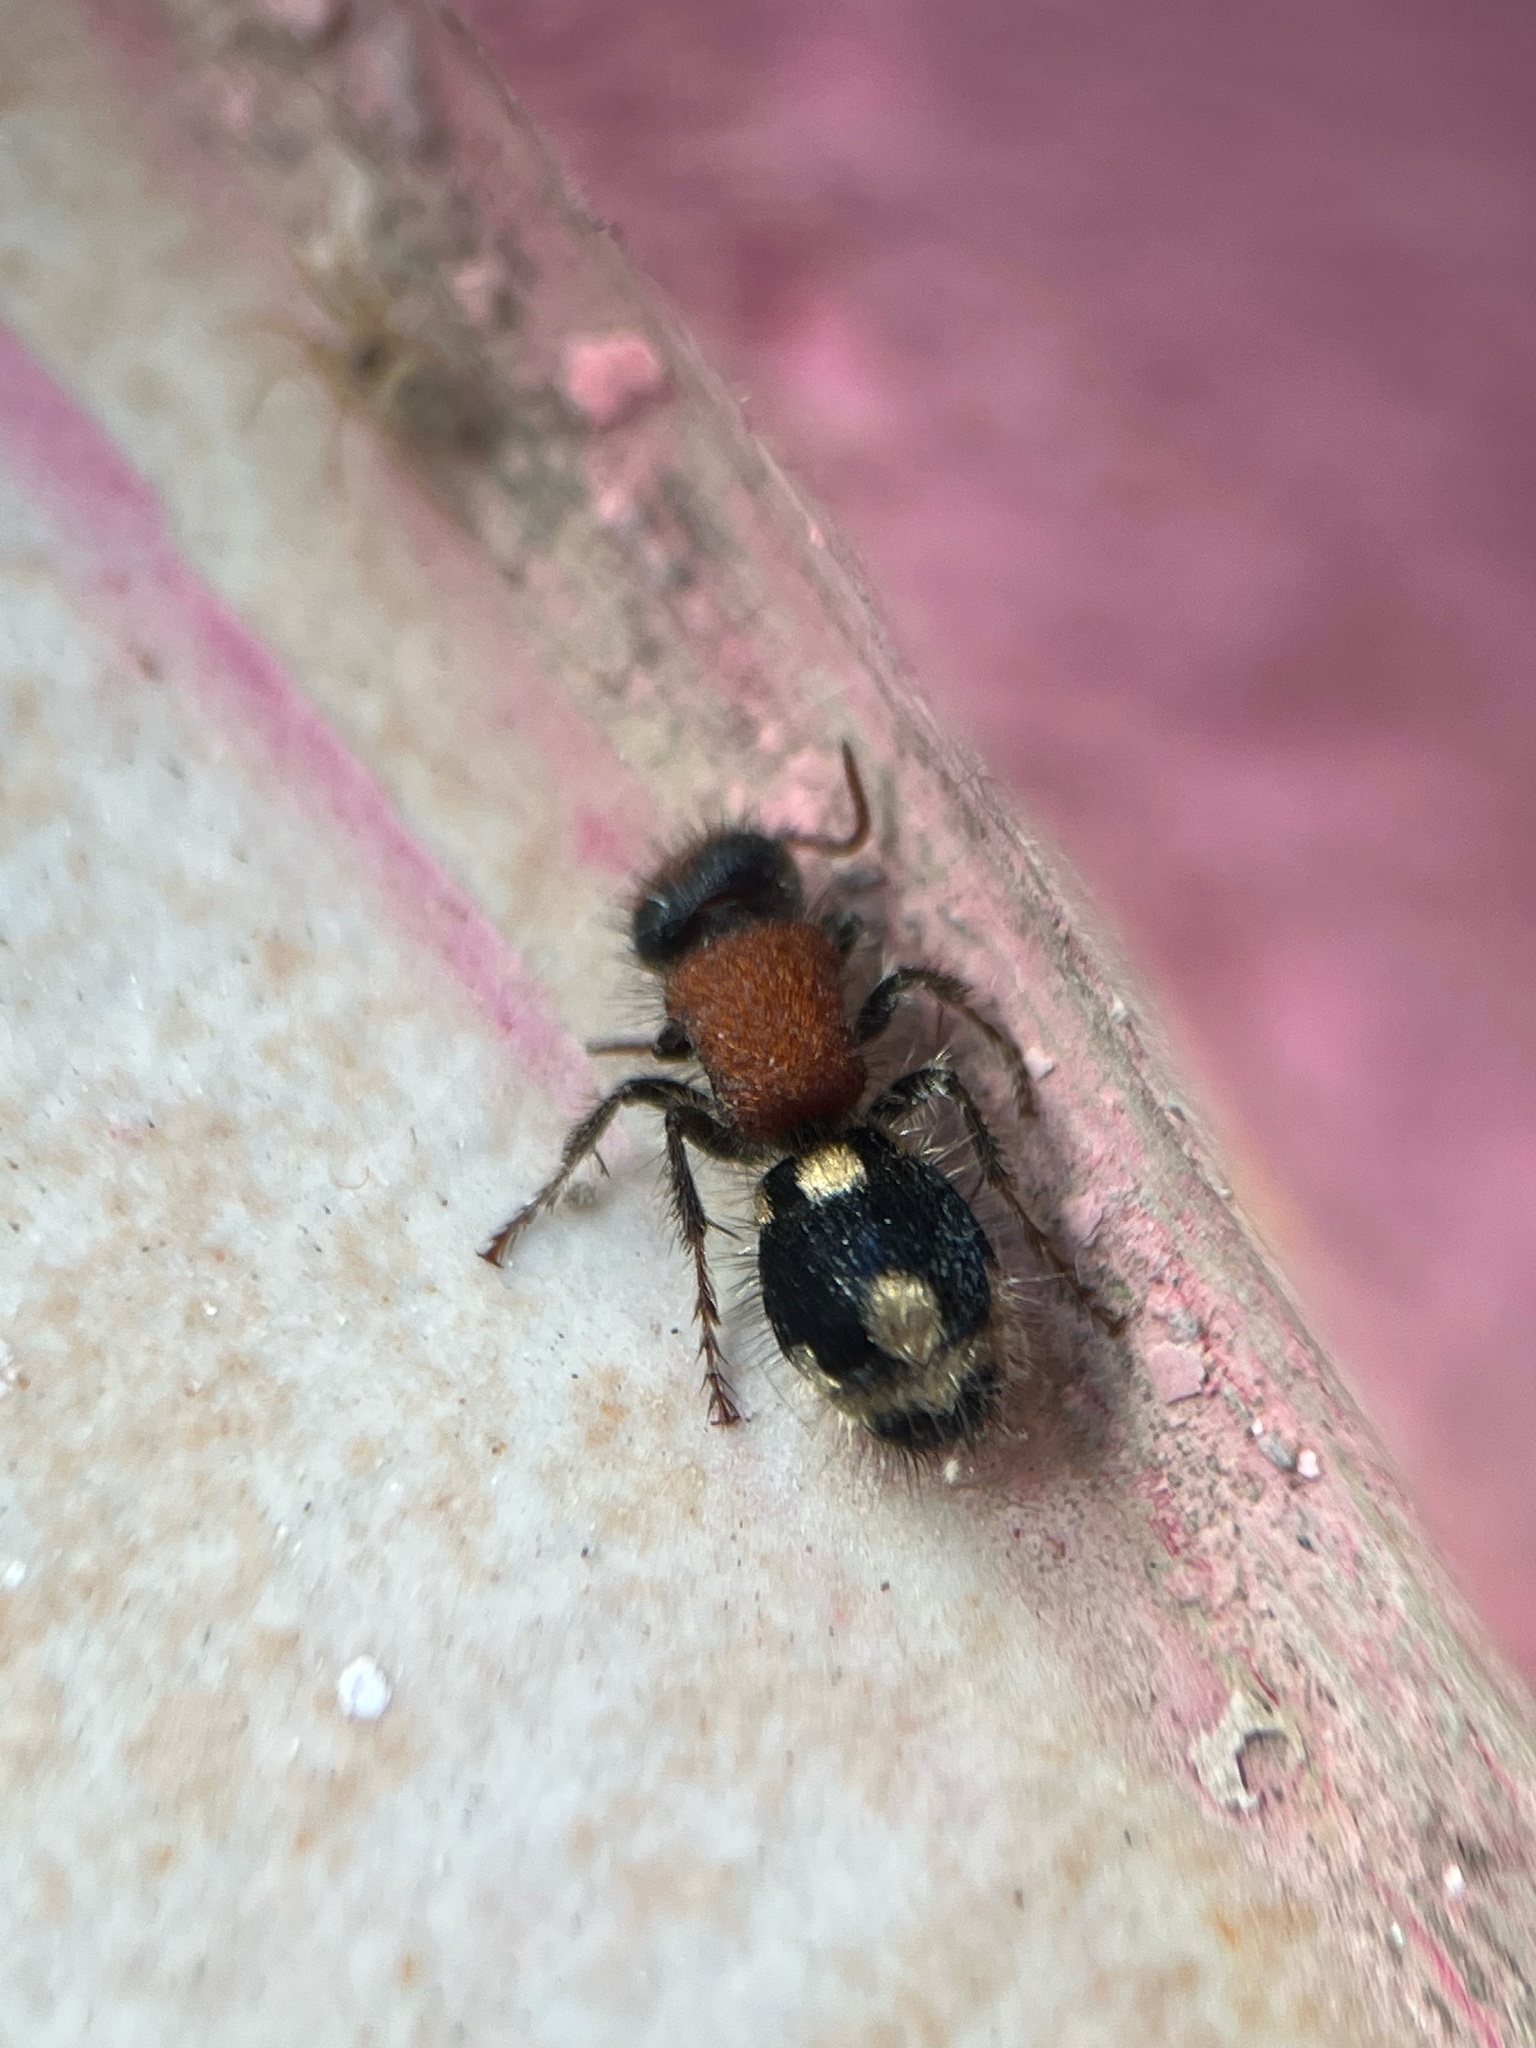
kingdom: Animalia
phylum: Arthropoda
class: Insecta
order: Hymenoptera
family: Mutillidae
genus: Ronisia
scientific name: Ronisia brutia
